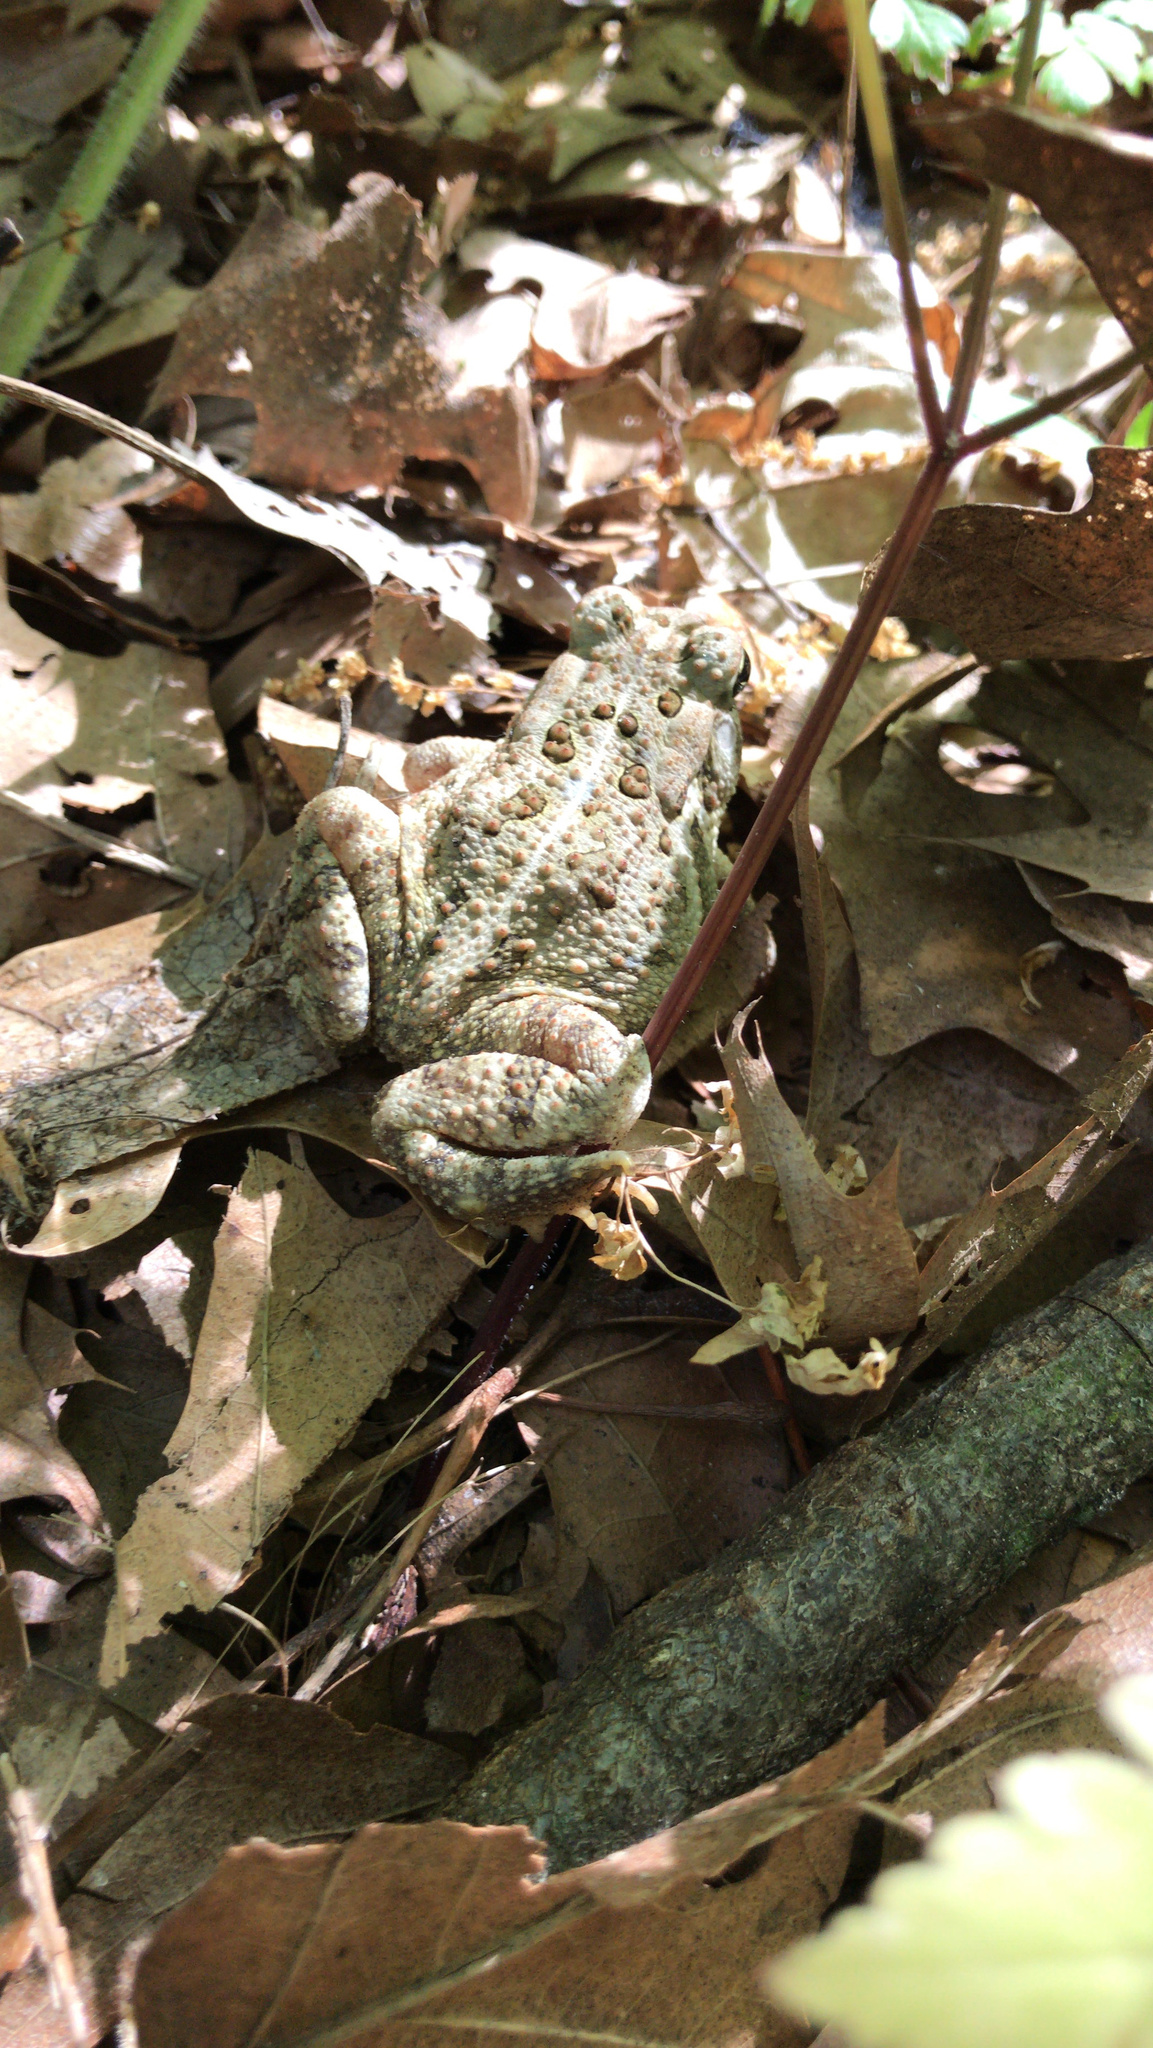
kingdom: Animalia
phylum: Chordata
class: Amphibia
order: Anura
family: Bufonidae
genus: Anaxyrus
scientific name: Anaxyrus fowleri
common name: Fowler's toad
